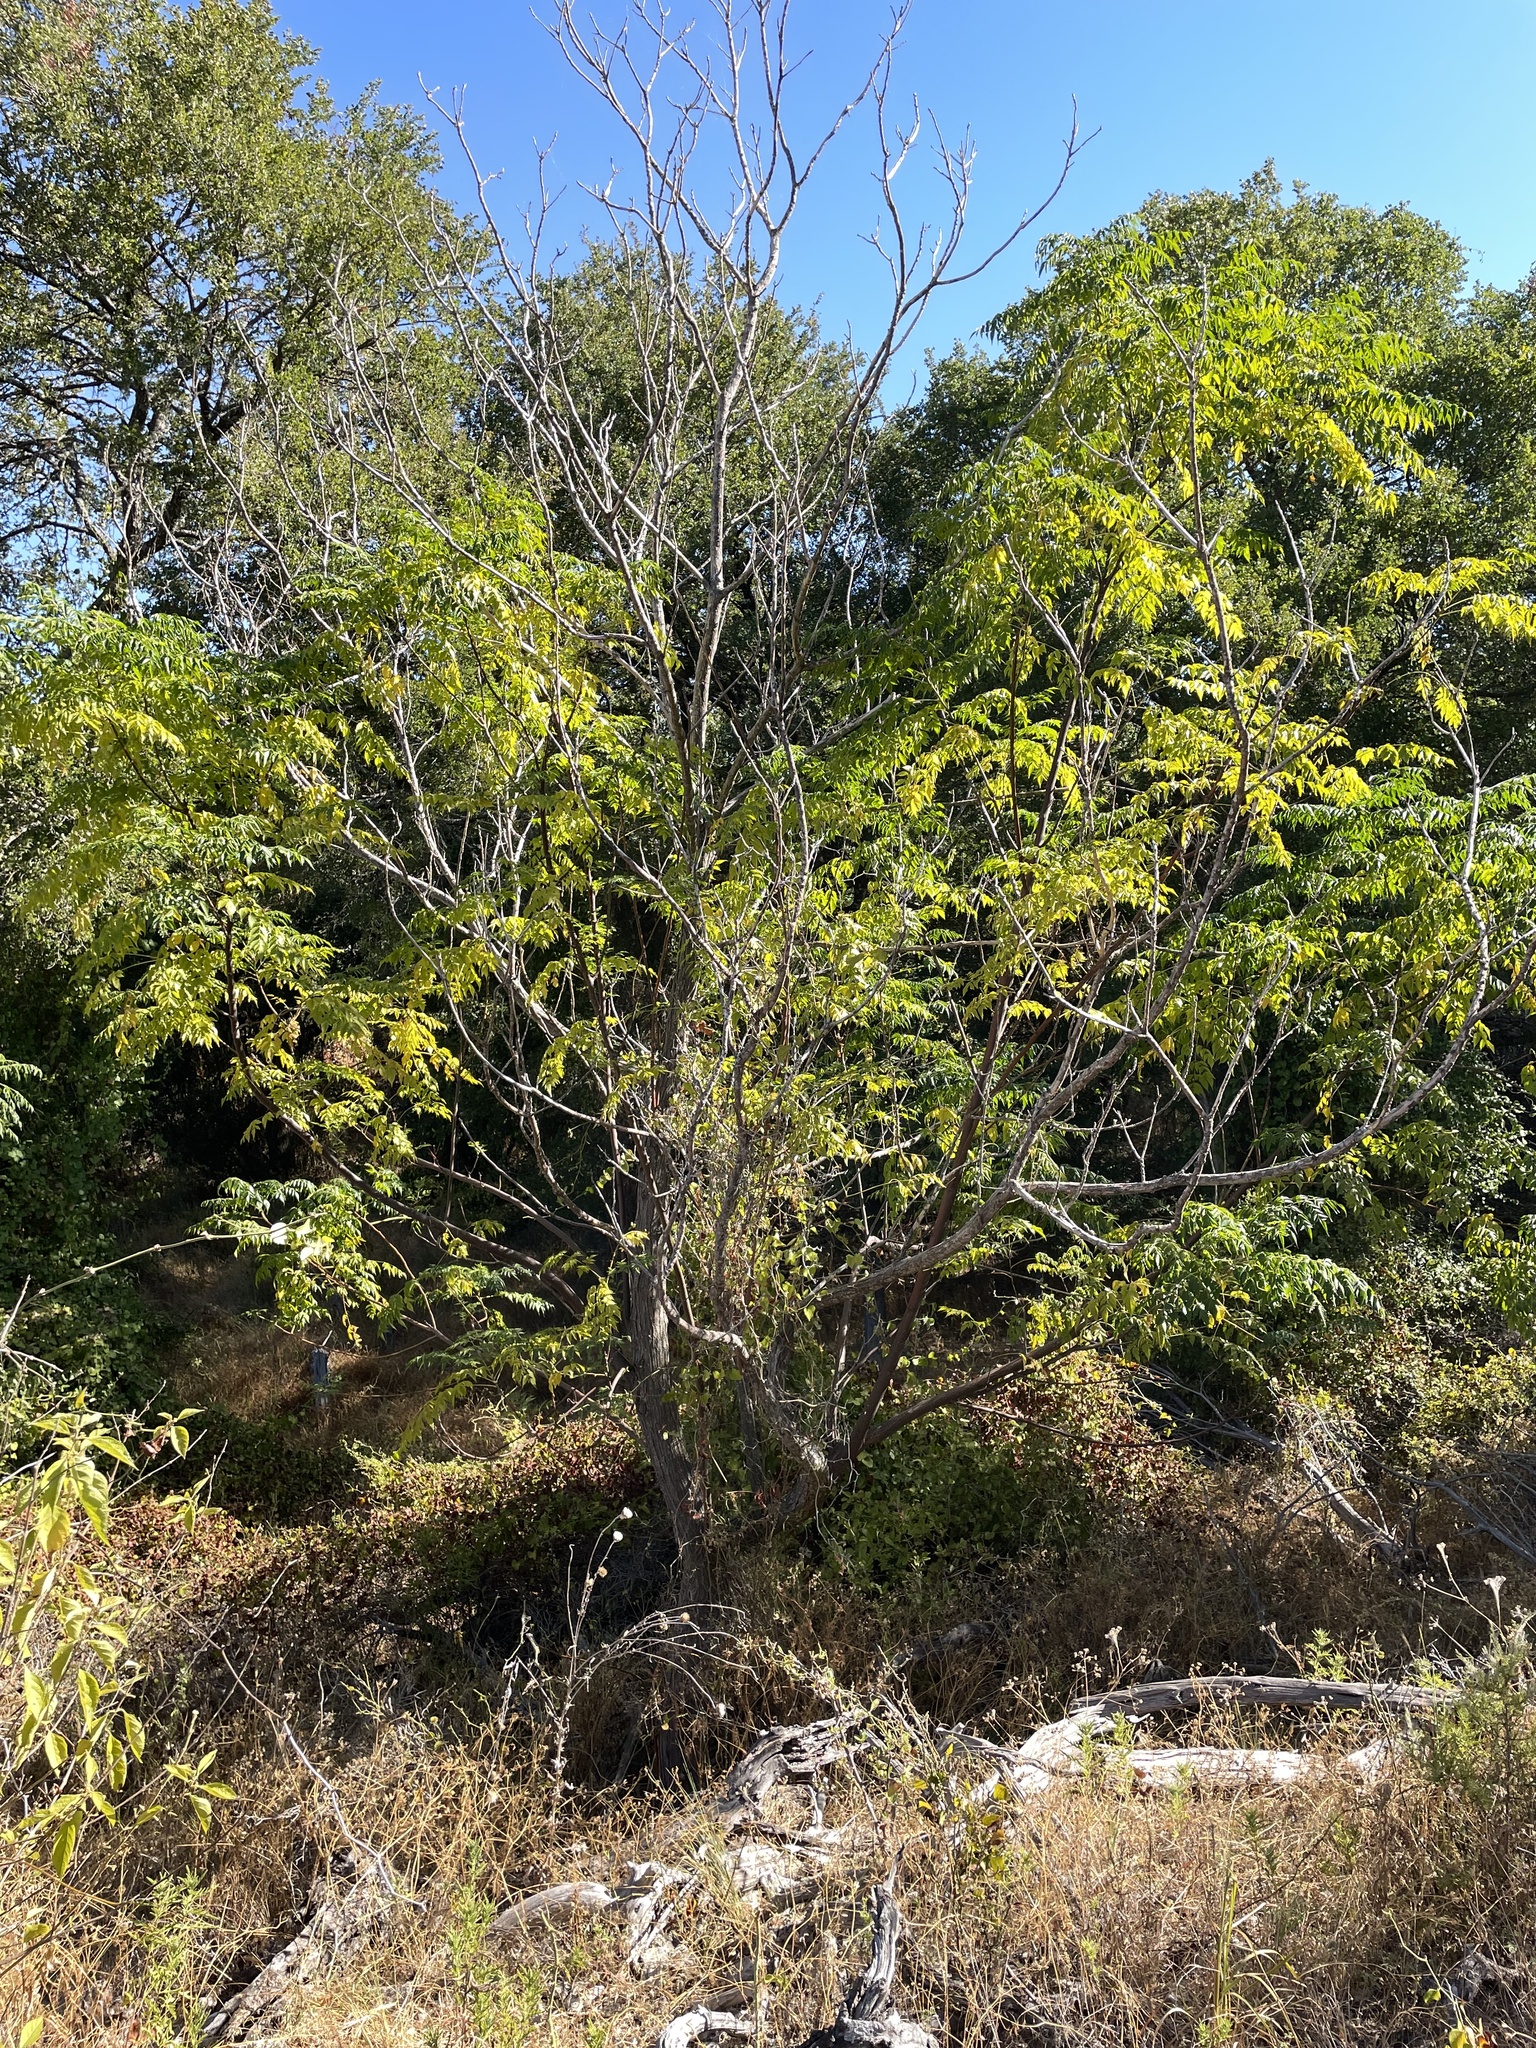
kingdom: Plantae
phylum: Tracheophyta
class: Magnoliopsida
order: Sapindales
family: Meliaceae
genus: Melia
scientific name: Melia azedarach
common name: Chinaberrytree
